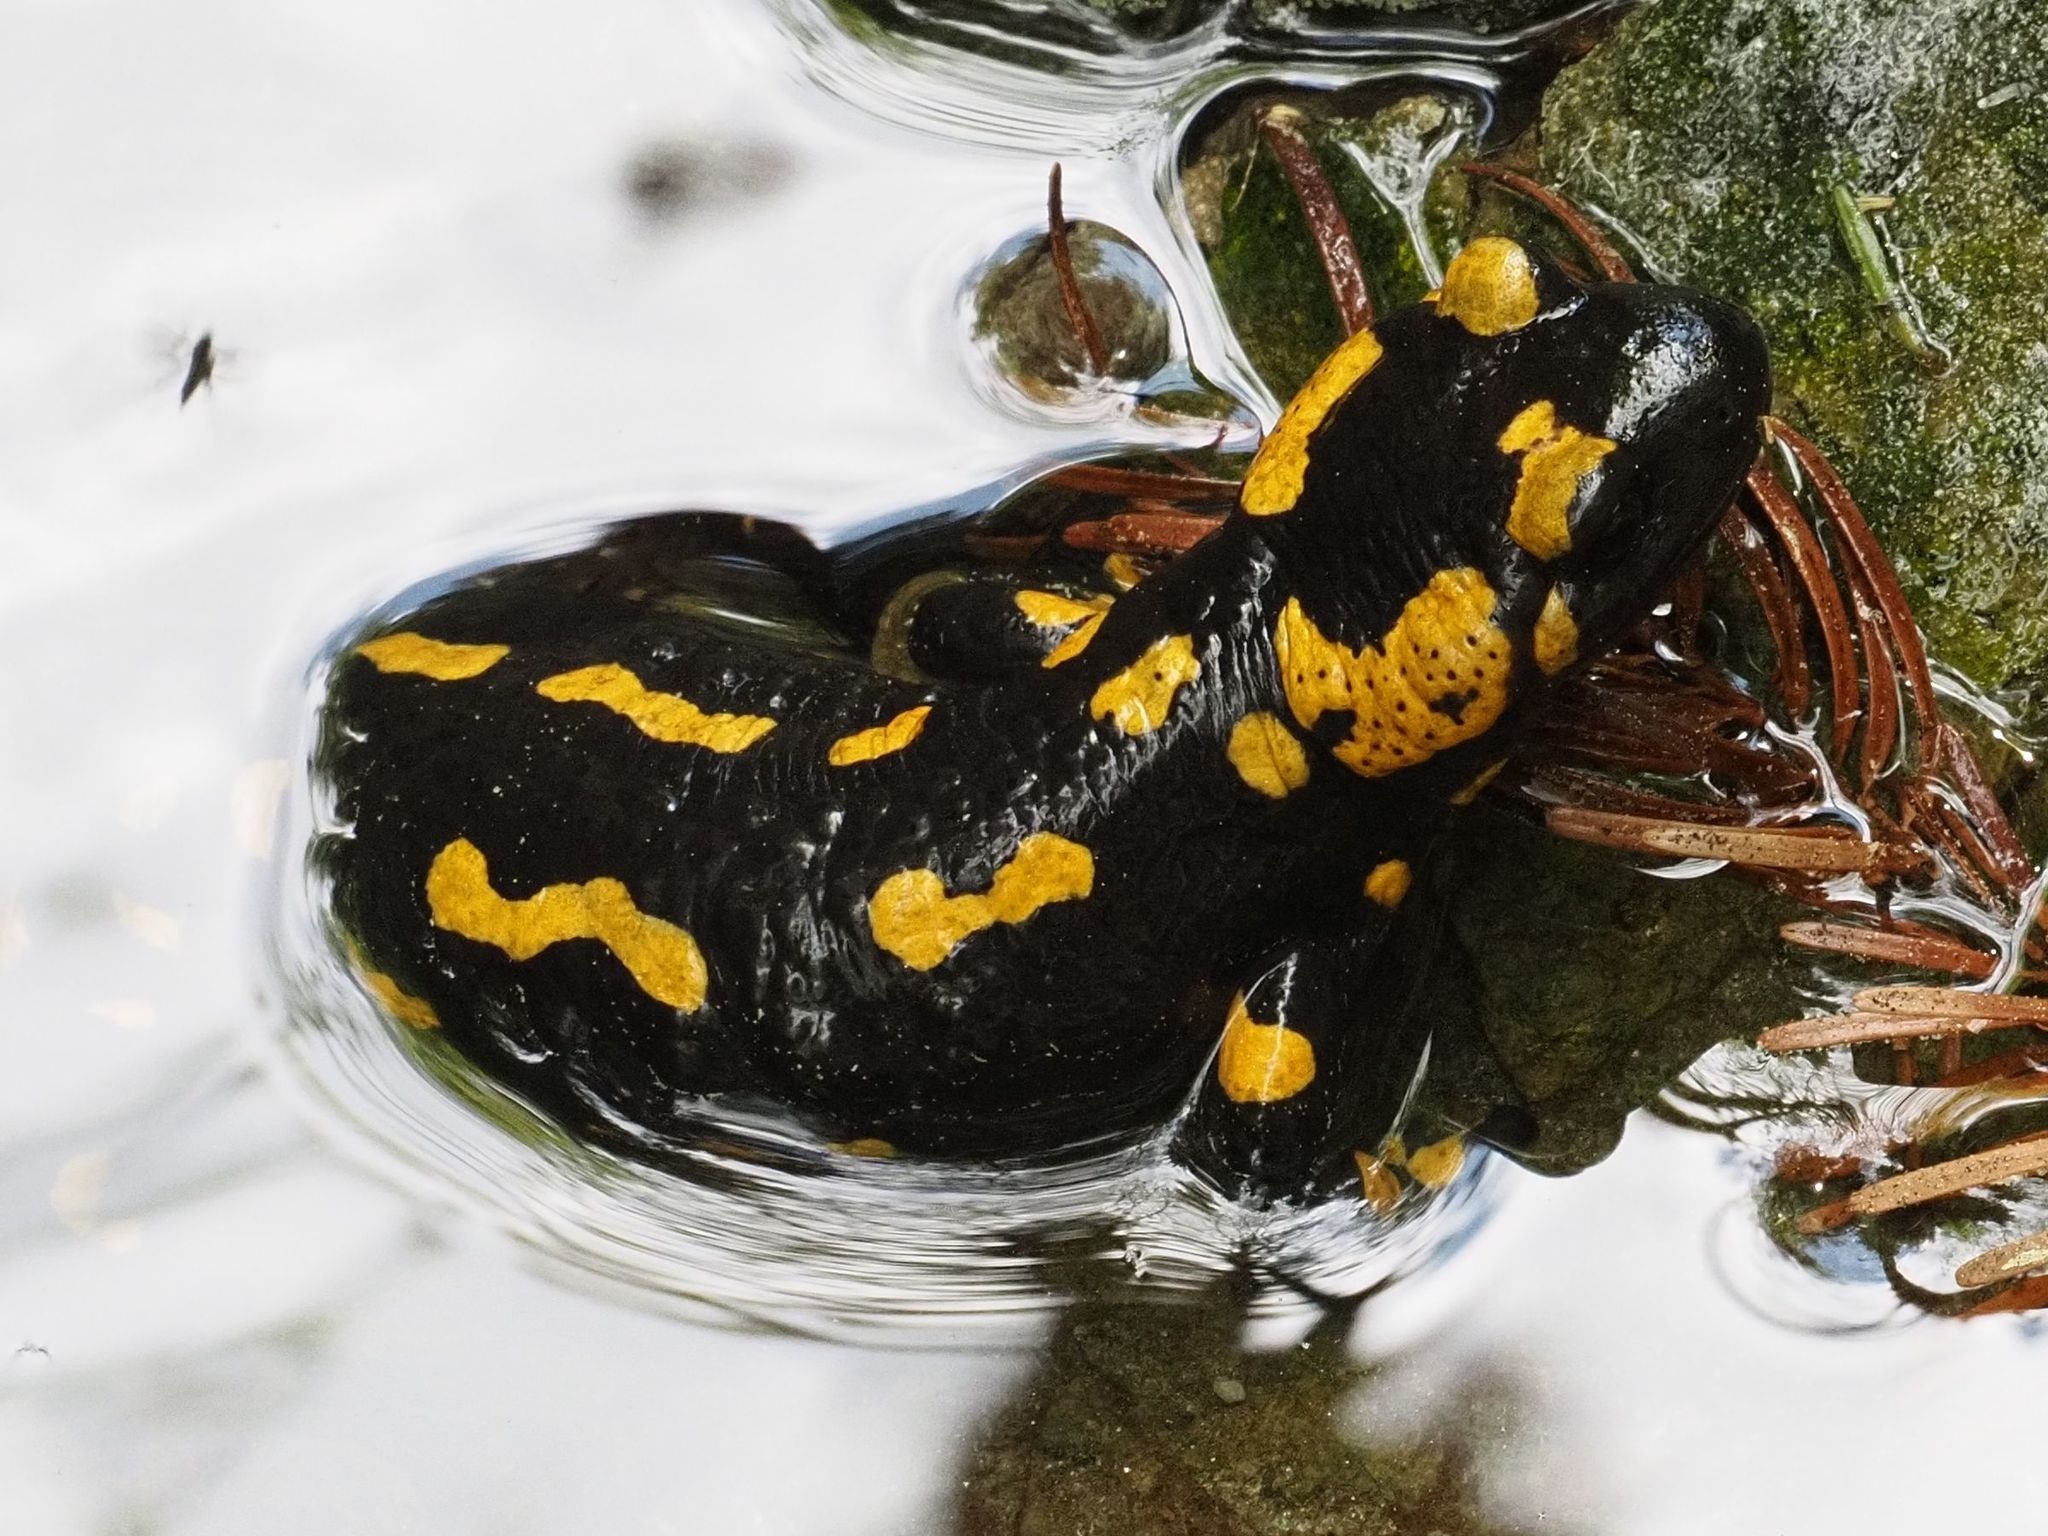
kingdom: Animalia
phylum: Chordata
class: Amphibia
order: Caudata
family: Salamandridae
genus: Salamandra
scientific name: Salamandra salamandra
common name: Fire salamander
